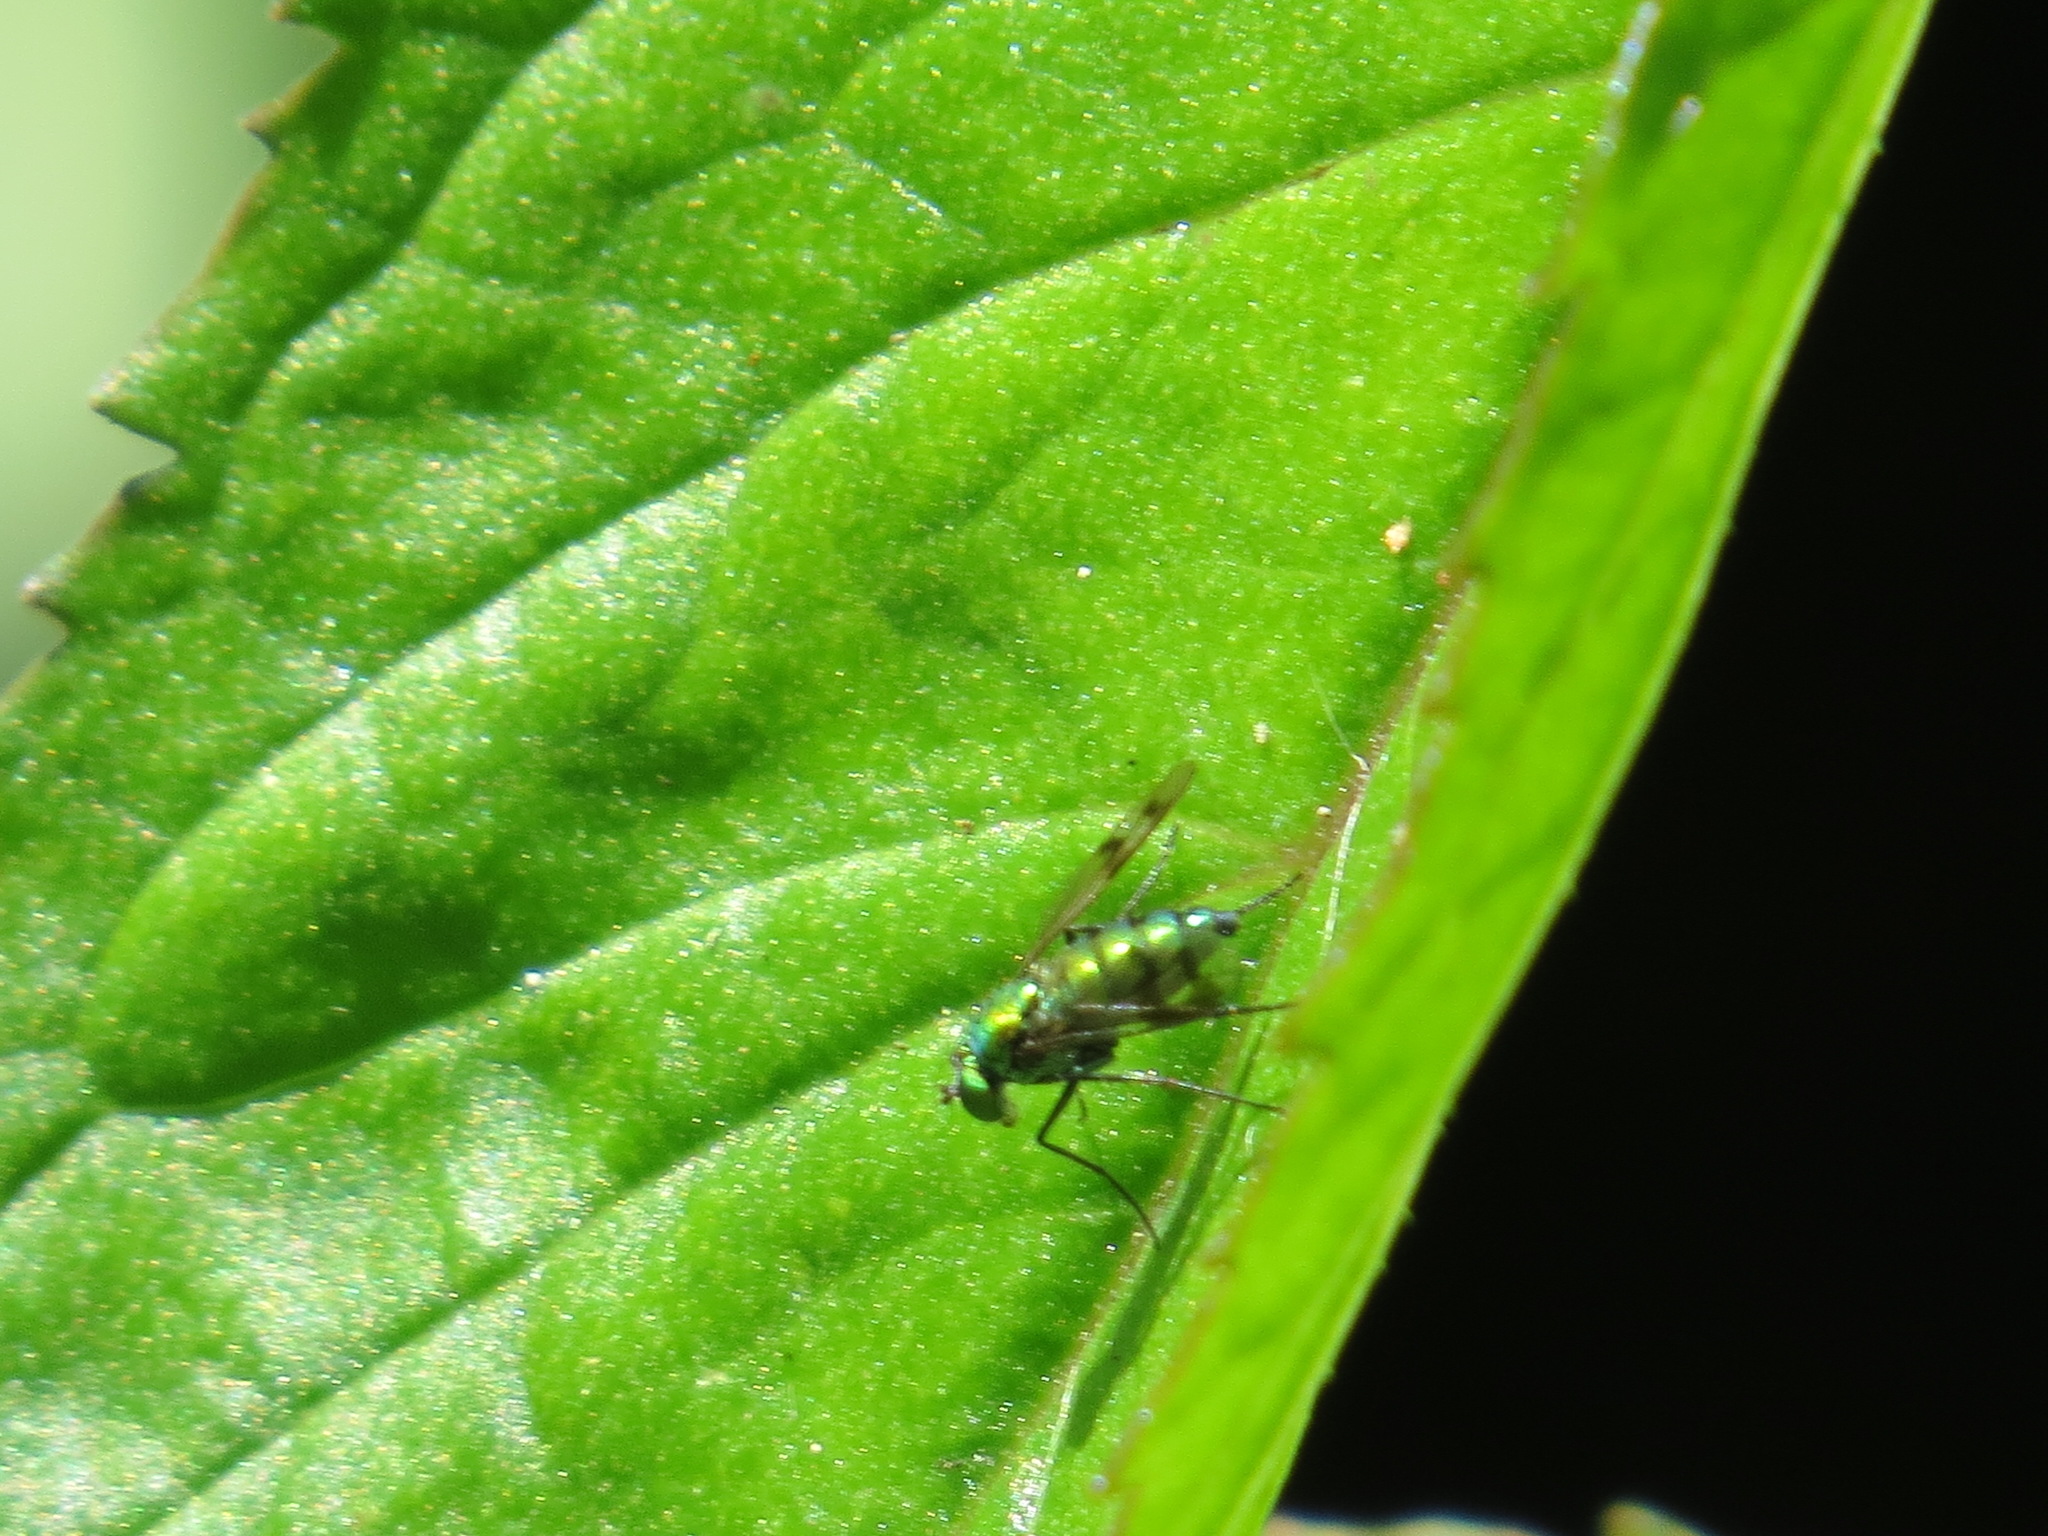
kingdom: Animalia
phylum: Arthropoda
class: Insecta
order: Diptera
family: Dolichopodidae
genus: Condylostylus
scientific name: Condylostylus occidentalis
